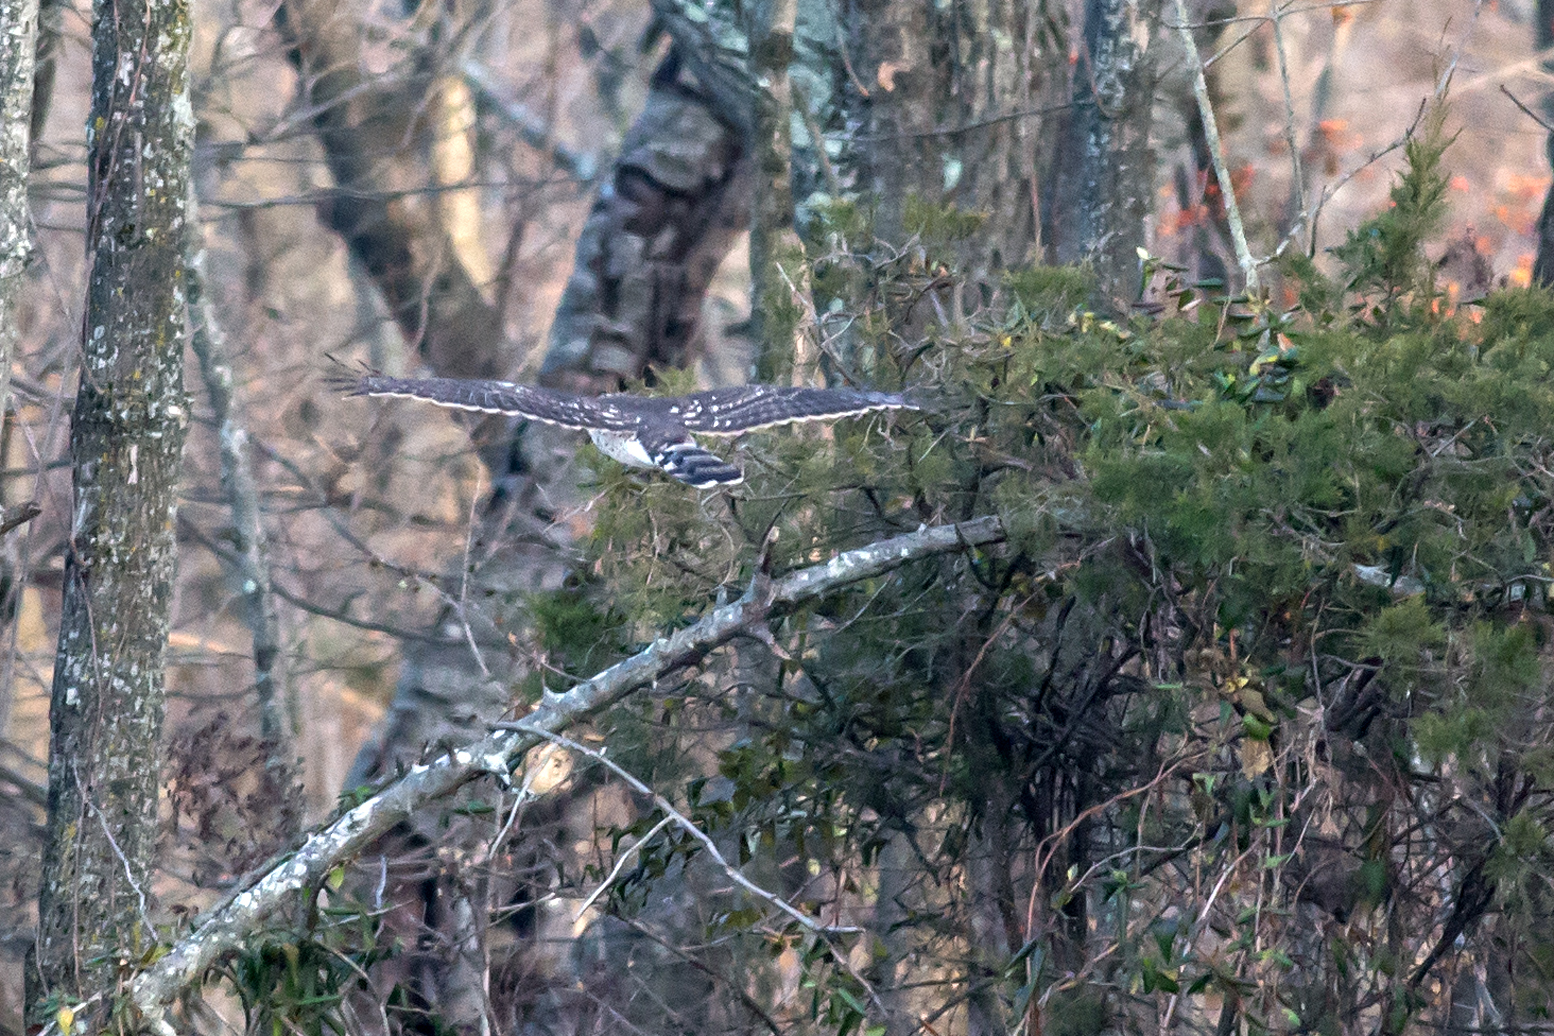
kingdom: Animalia
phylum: Chordata
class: Aves
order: Accipitriformes
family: Accipitridae
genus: Buteo
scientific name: Buteo lineatus
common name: Red-shouldered hawk
